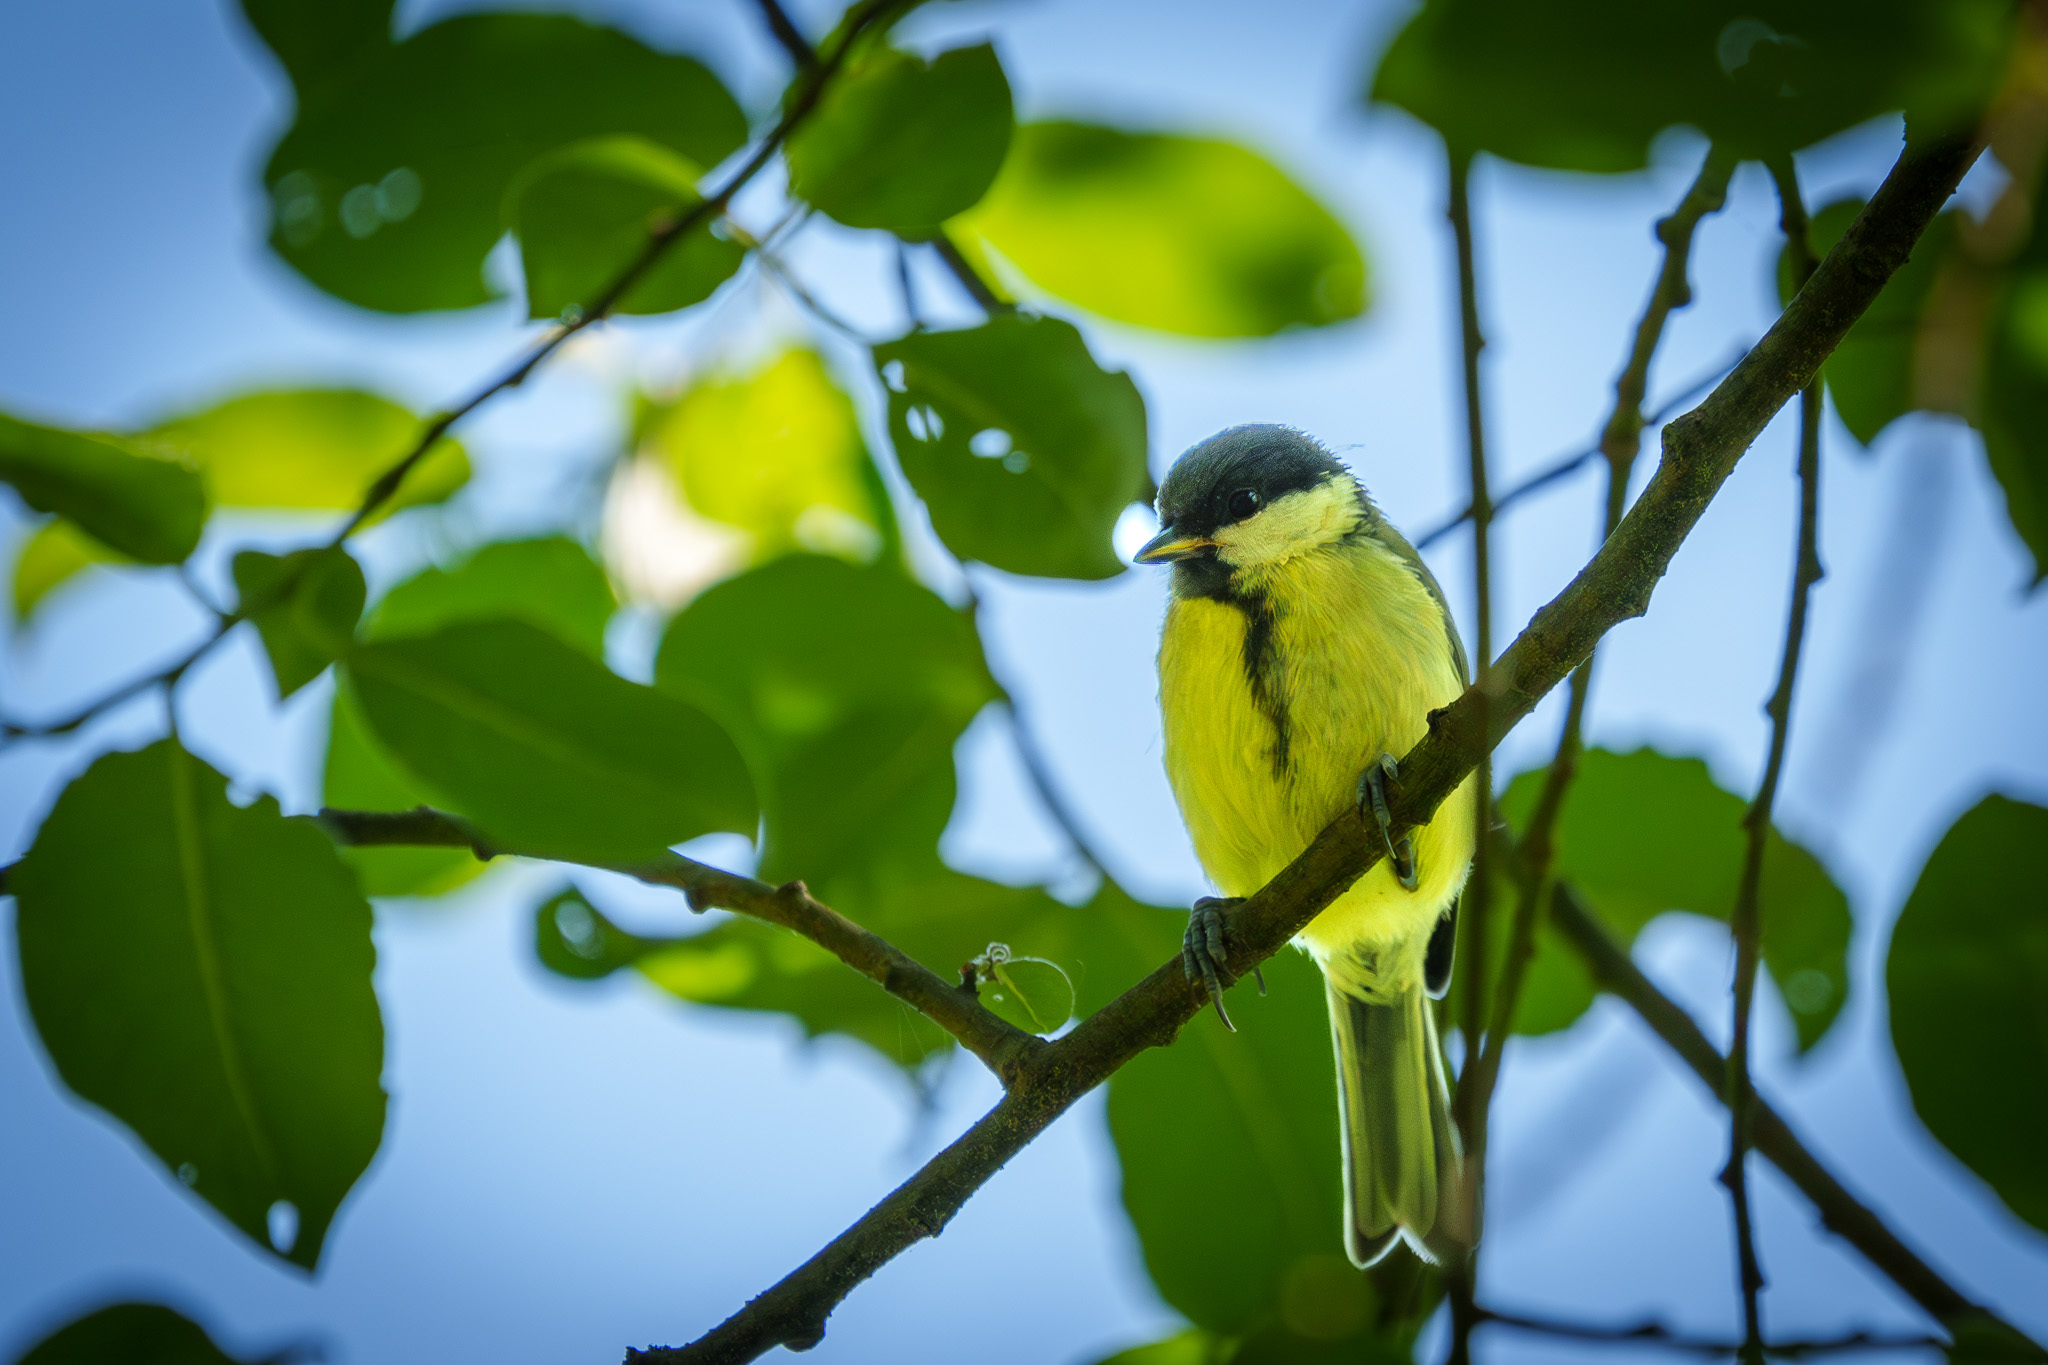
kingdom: Animalia
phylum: Chordata
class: Aves
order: Passeriformes
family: Paridae
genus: Parus
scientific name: Parus major
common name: Great tit
